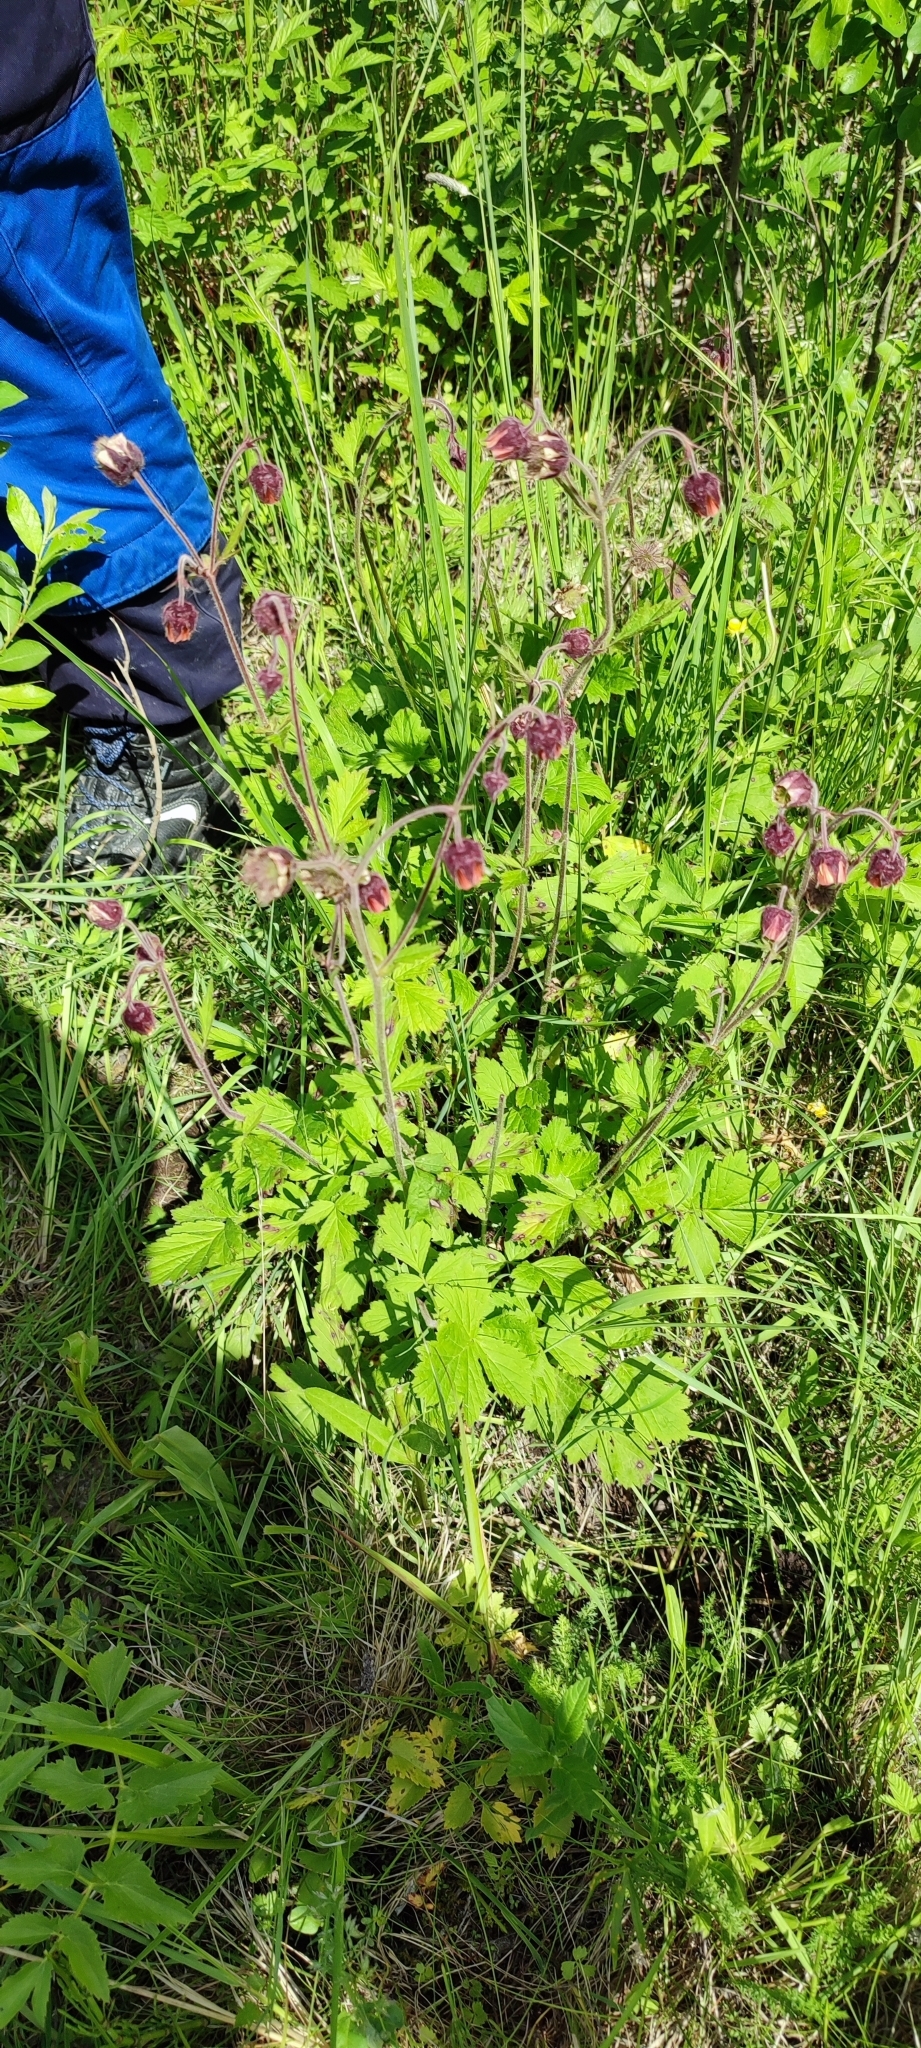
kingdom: Plantae
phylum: Tracheophyta
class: Magnoliopsida
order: Rosales
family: Rosaceae
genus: Geum
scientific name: Geum rivale
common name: Water avens
